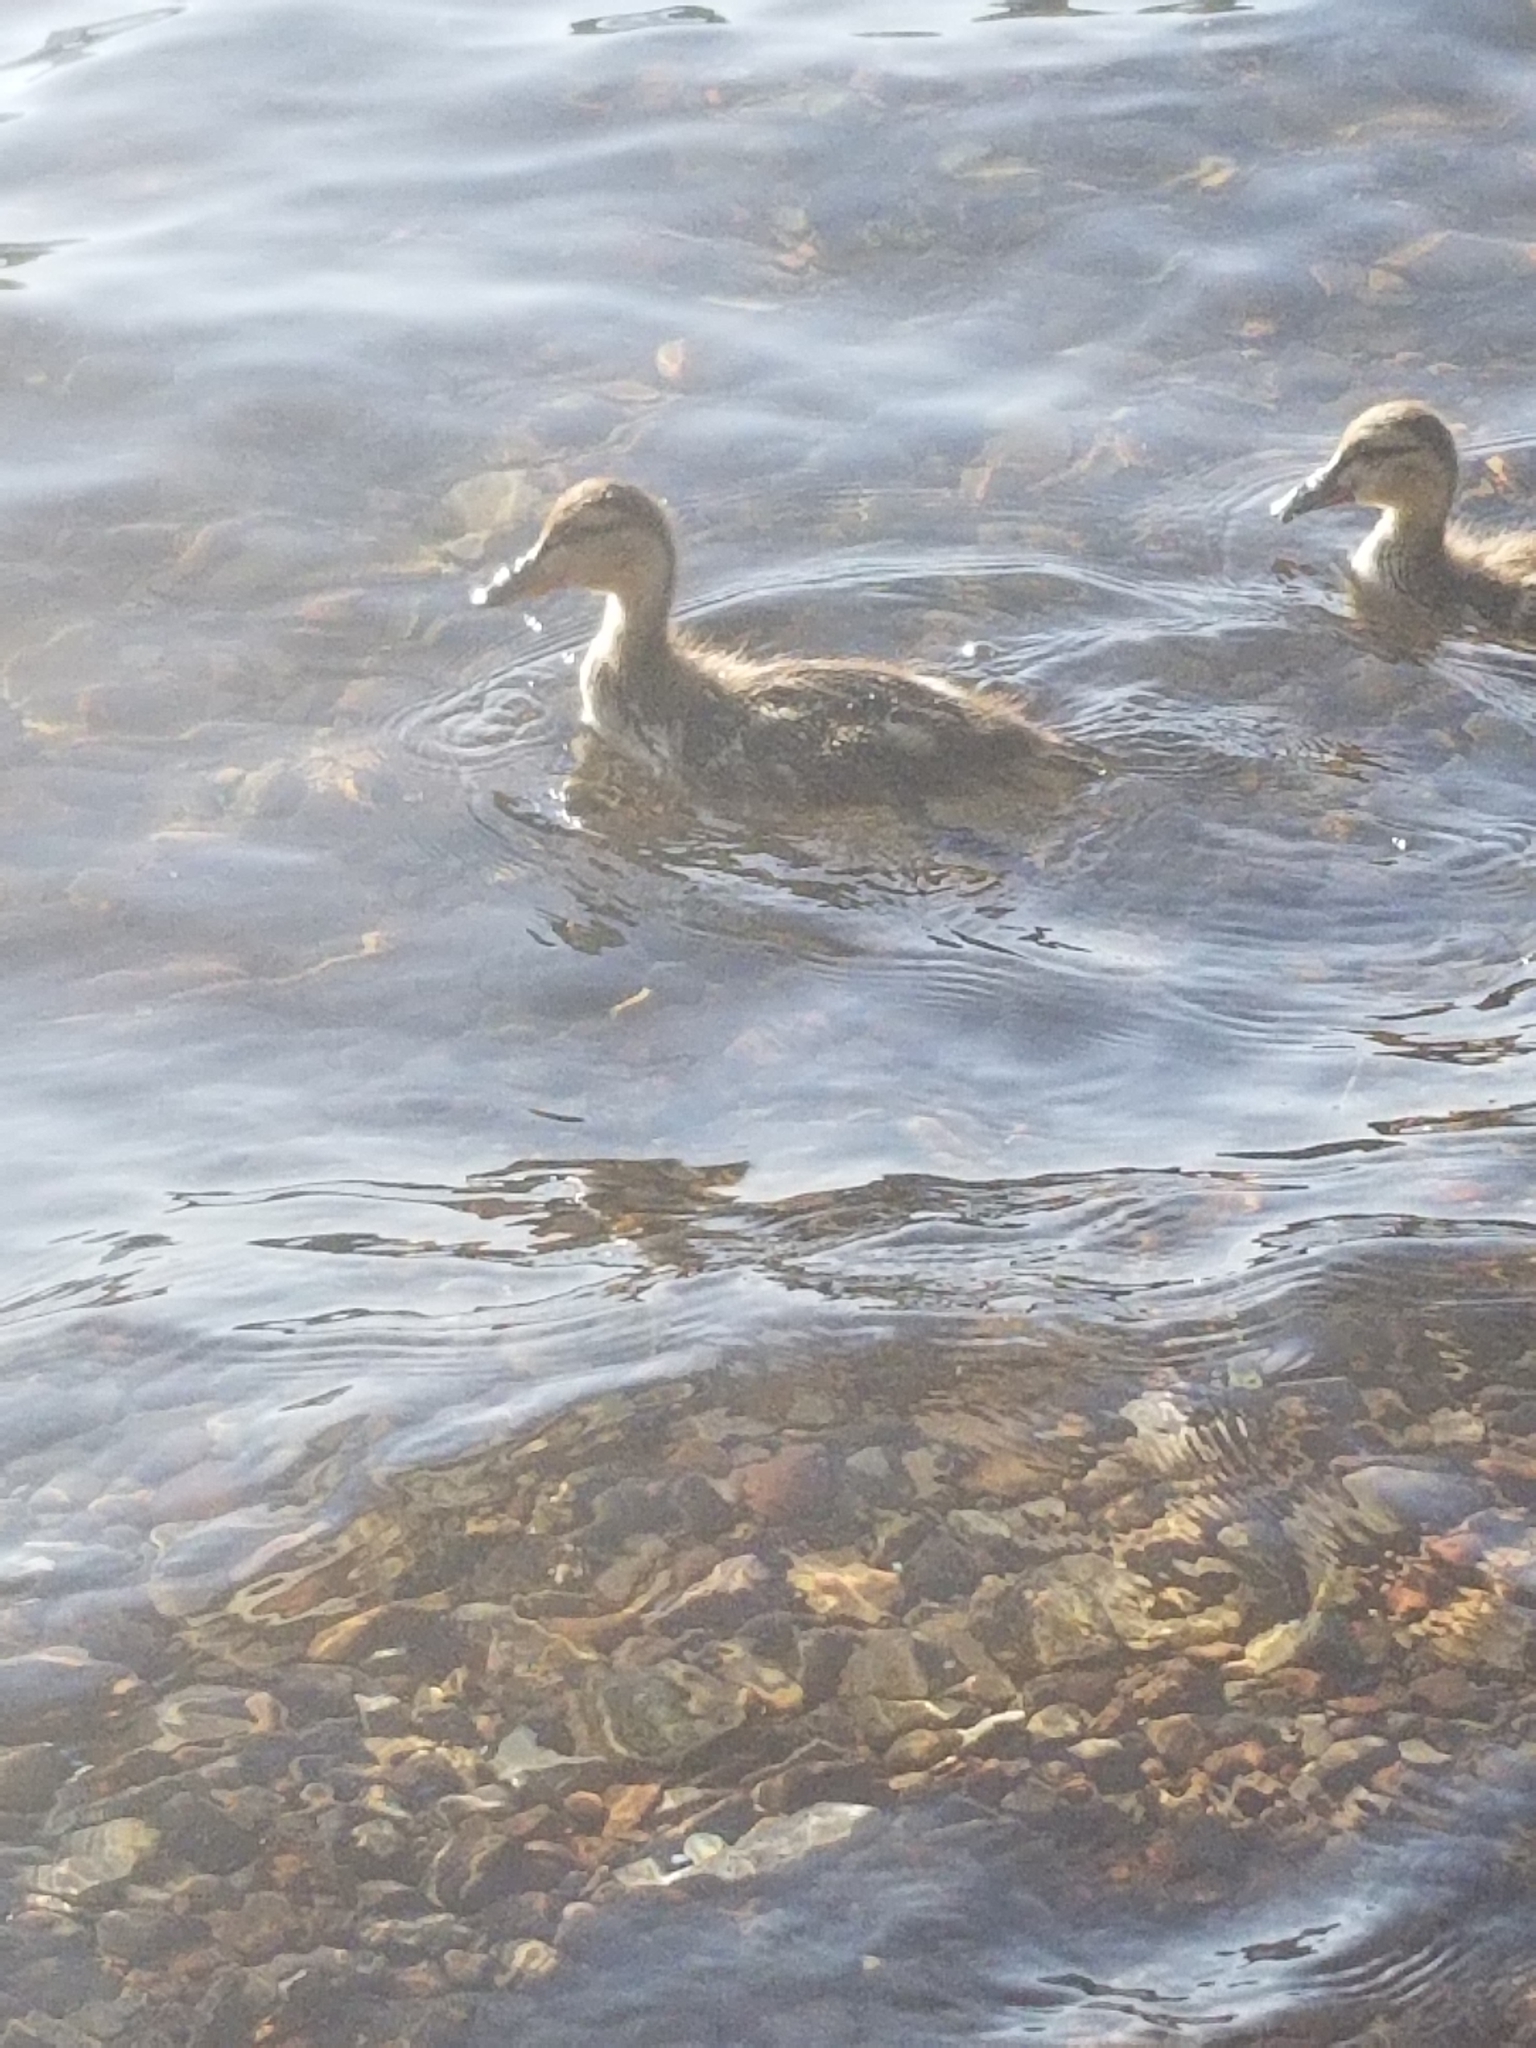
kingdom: Animalia
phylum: Chordata
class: Aves
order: Anseriformes
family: Anatidae
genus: Anas
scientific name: Anas platyrhynchos
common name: Mallard
